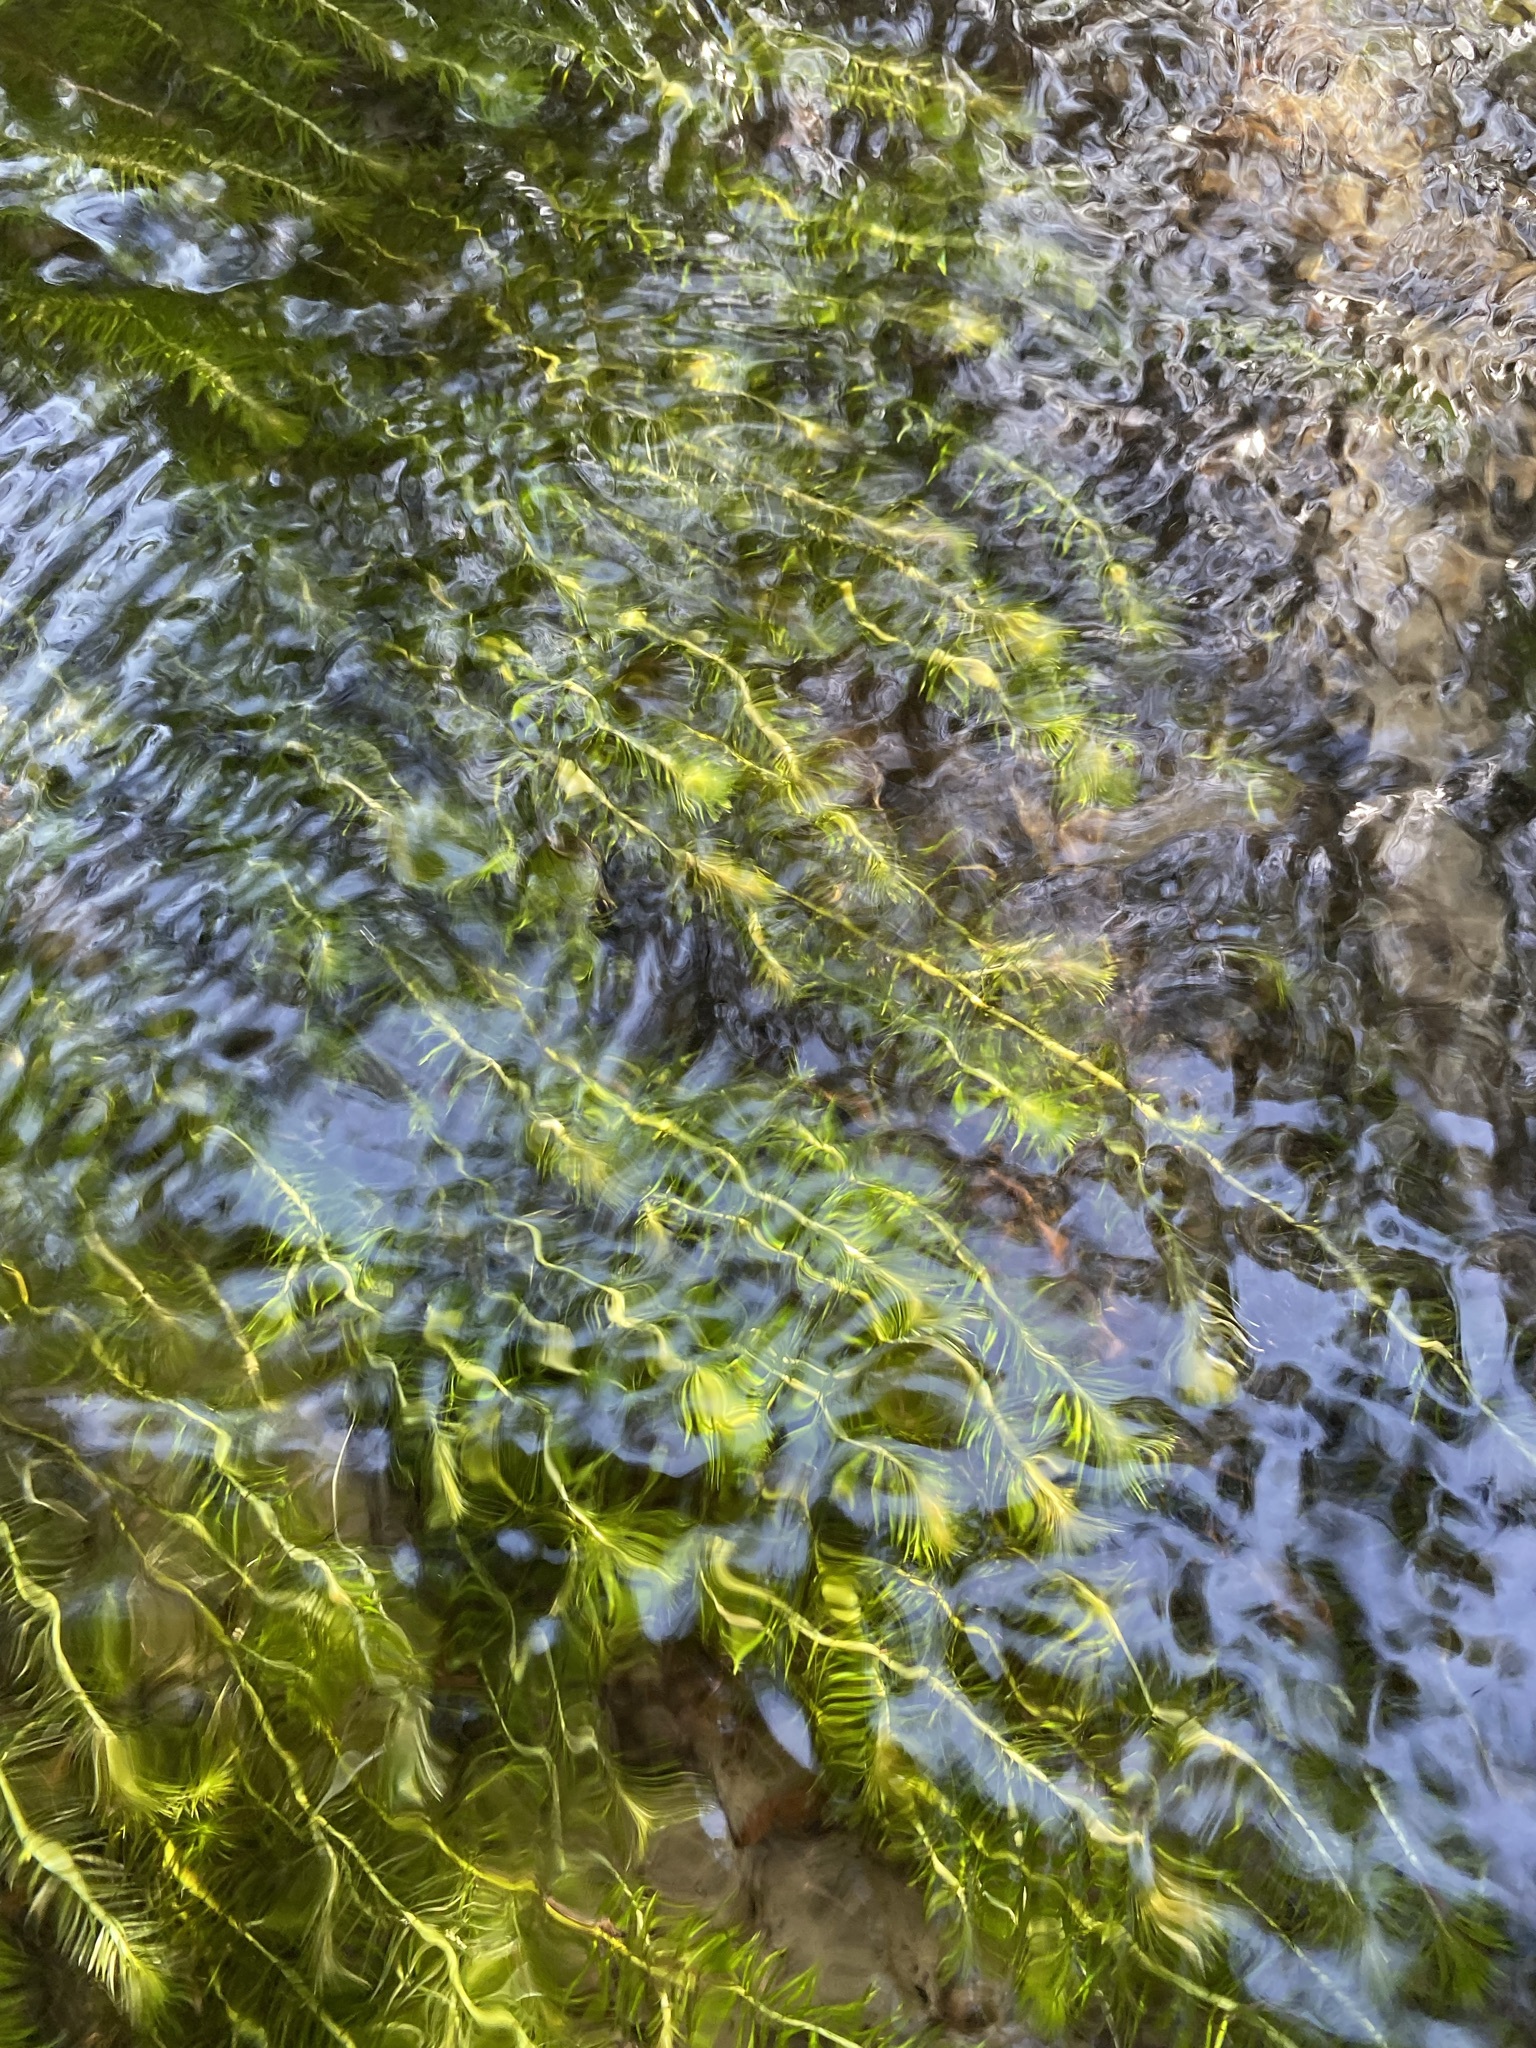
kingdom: Plantae
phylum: Tracheophyta
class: Liliopsida
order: Poales
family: Mayacaceae
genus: Mayaca
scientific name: Mayaca fluviatilis
